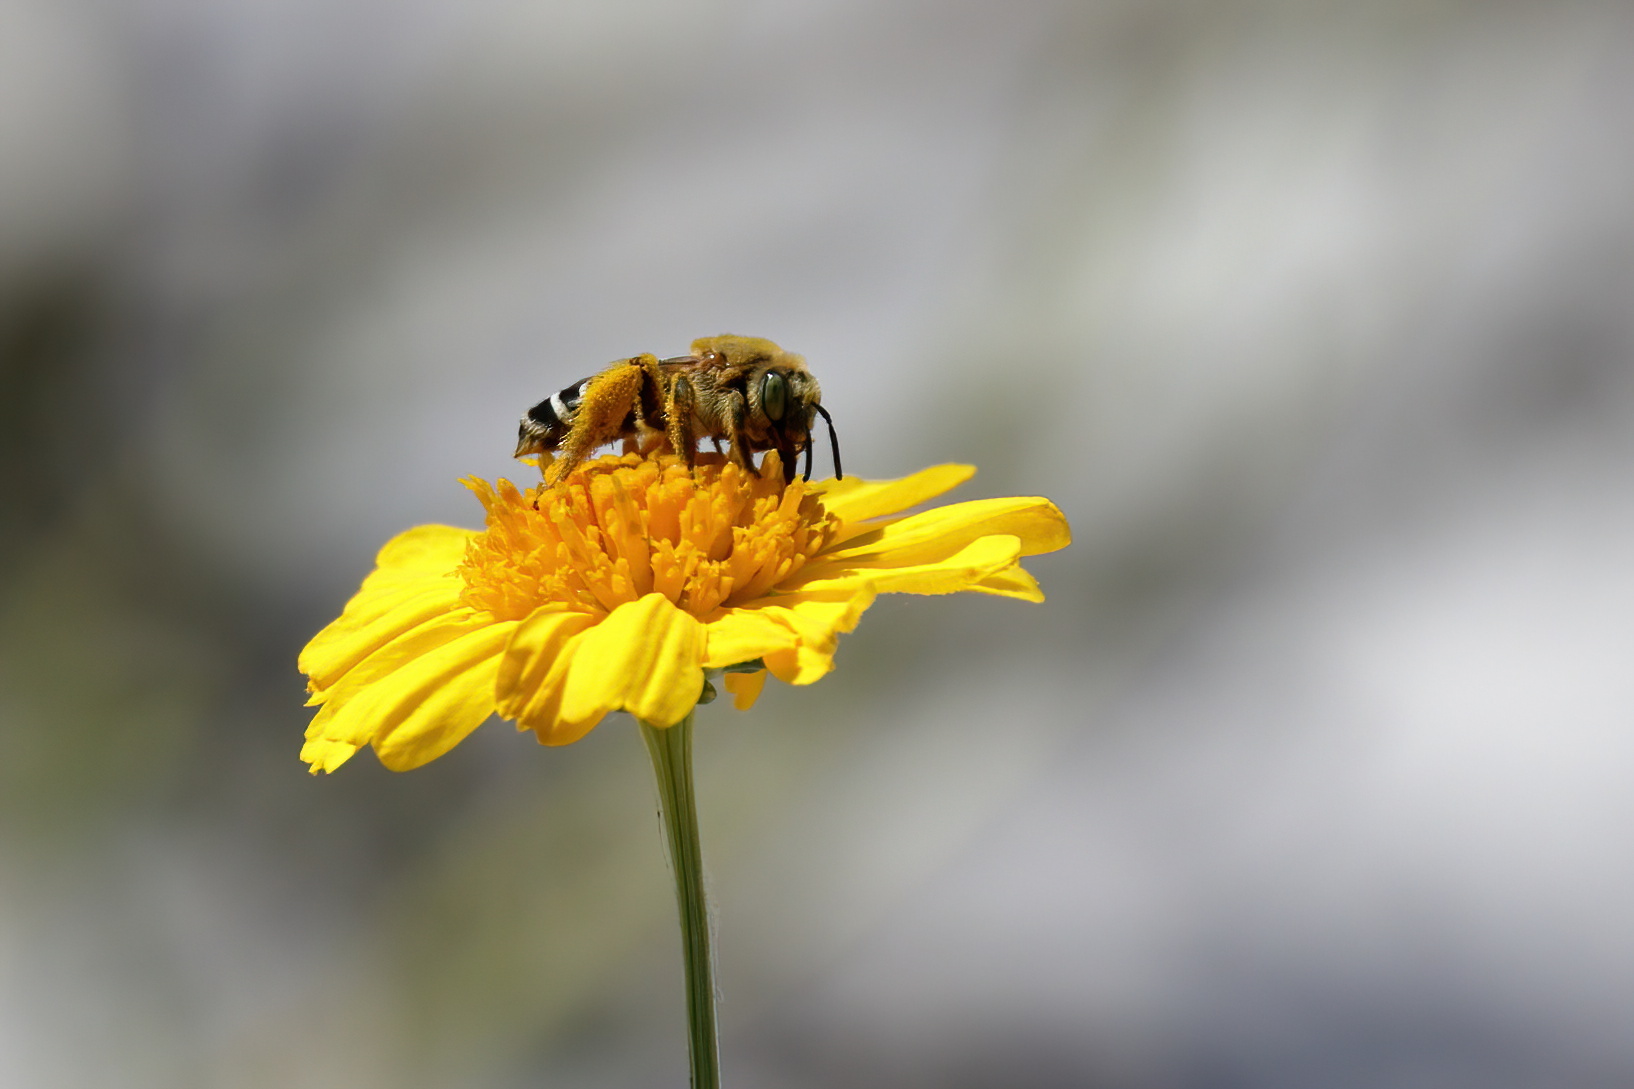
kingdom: Animalia
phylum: Arthropoda
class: Insecta
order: Hymenoptera
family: Melittidae
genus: Hesperapis
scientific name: Hesperapis oraria
